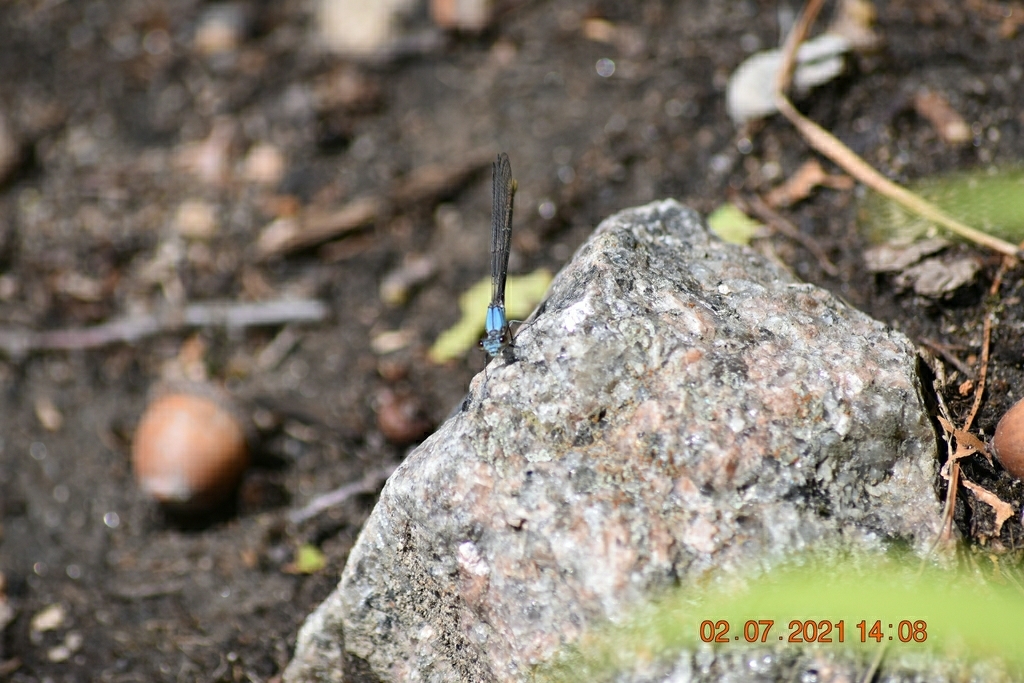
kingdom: Animalia
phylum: Arthropoda
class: Insecta
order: Odonata
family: Coenagrionidae
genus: Argia
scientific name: Argia moesta
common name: Powdered dancer
